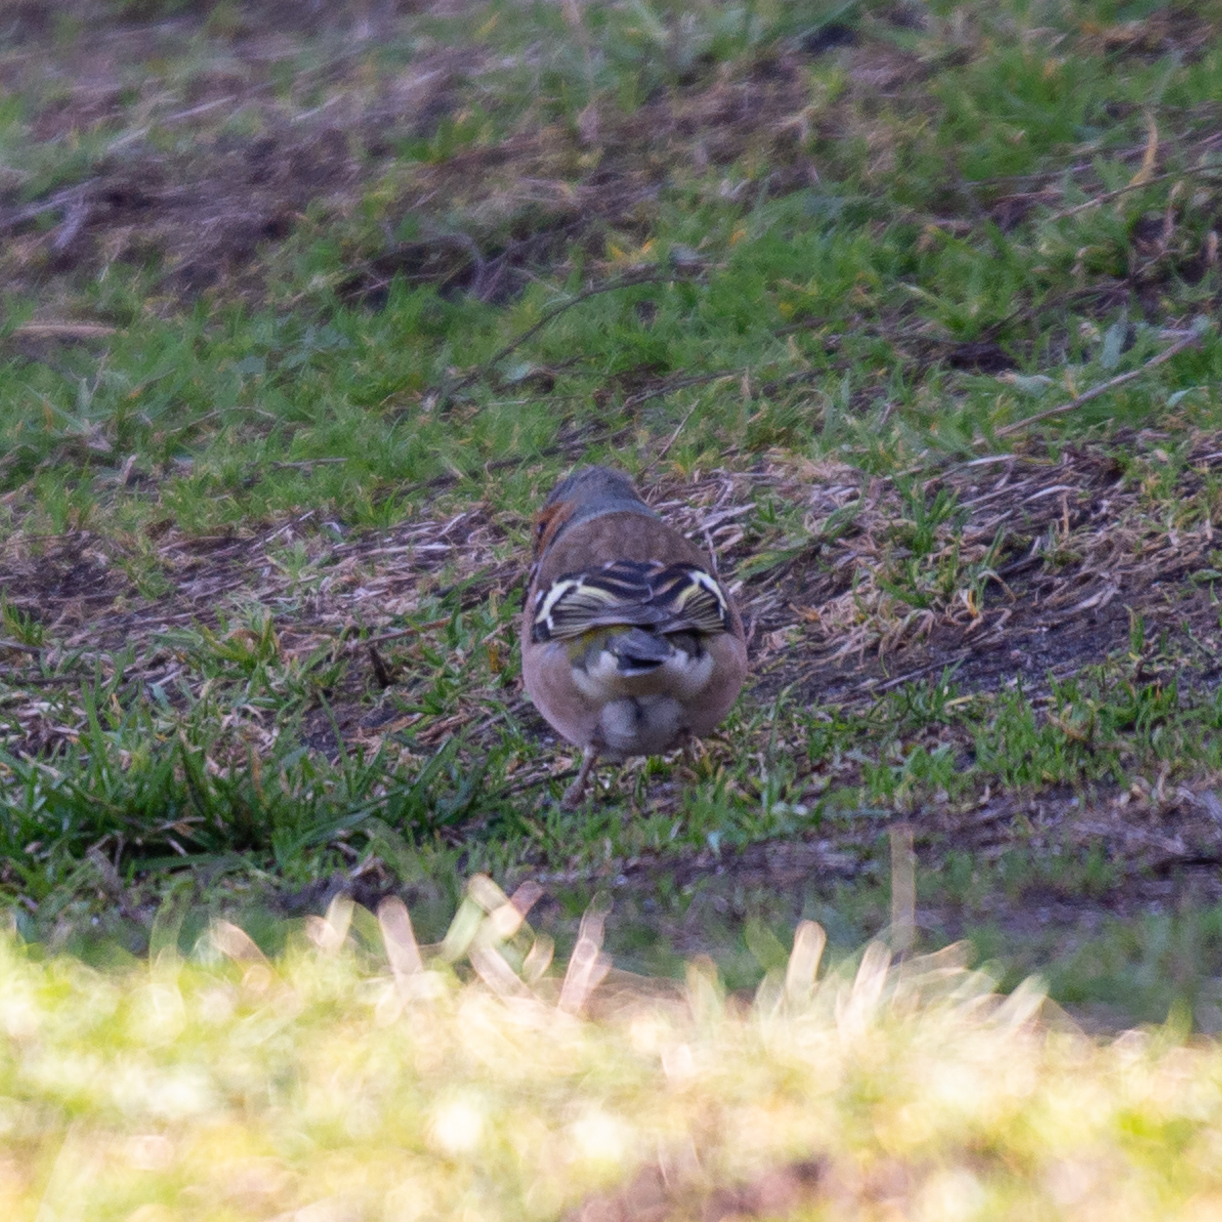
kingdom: Animalia
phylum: Chordata
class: Aves
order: Passeriformes
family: Fringillidae
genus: Fringilla
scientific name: Fringilla coelebs
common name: Common chaffinch
